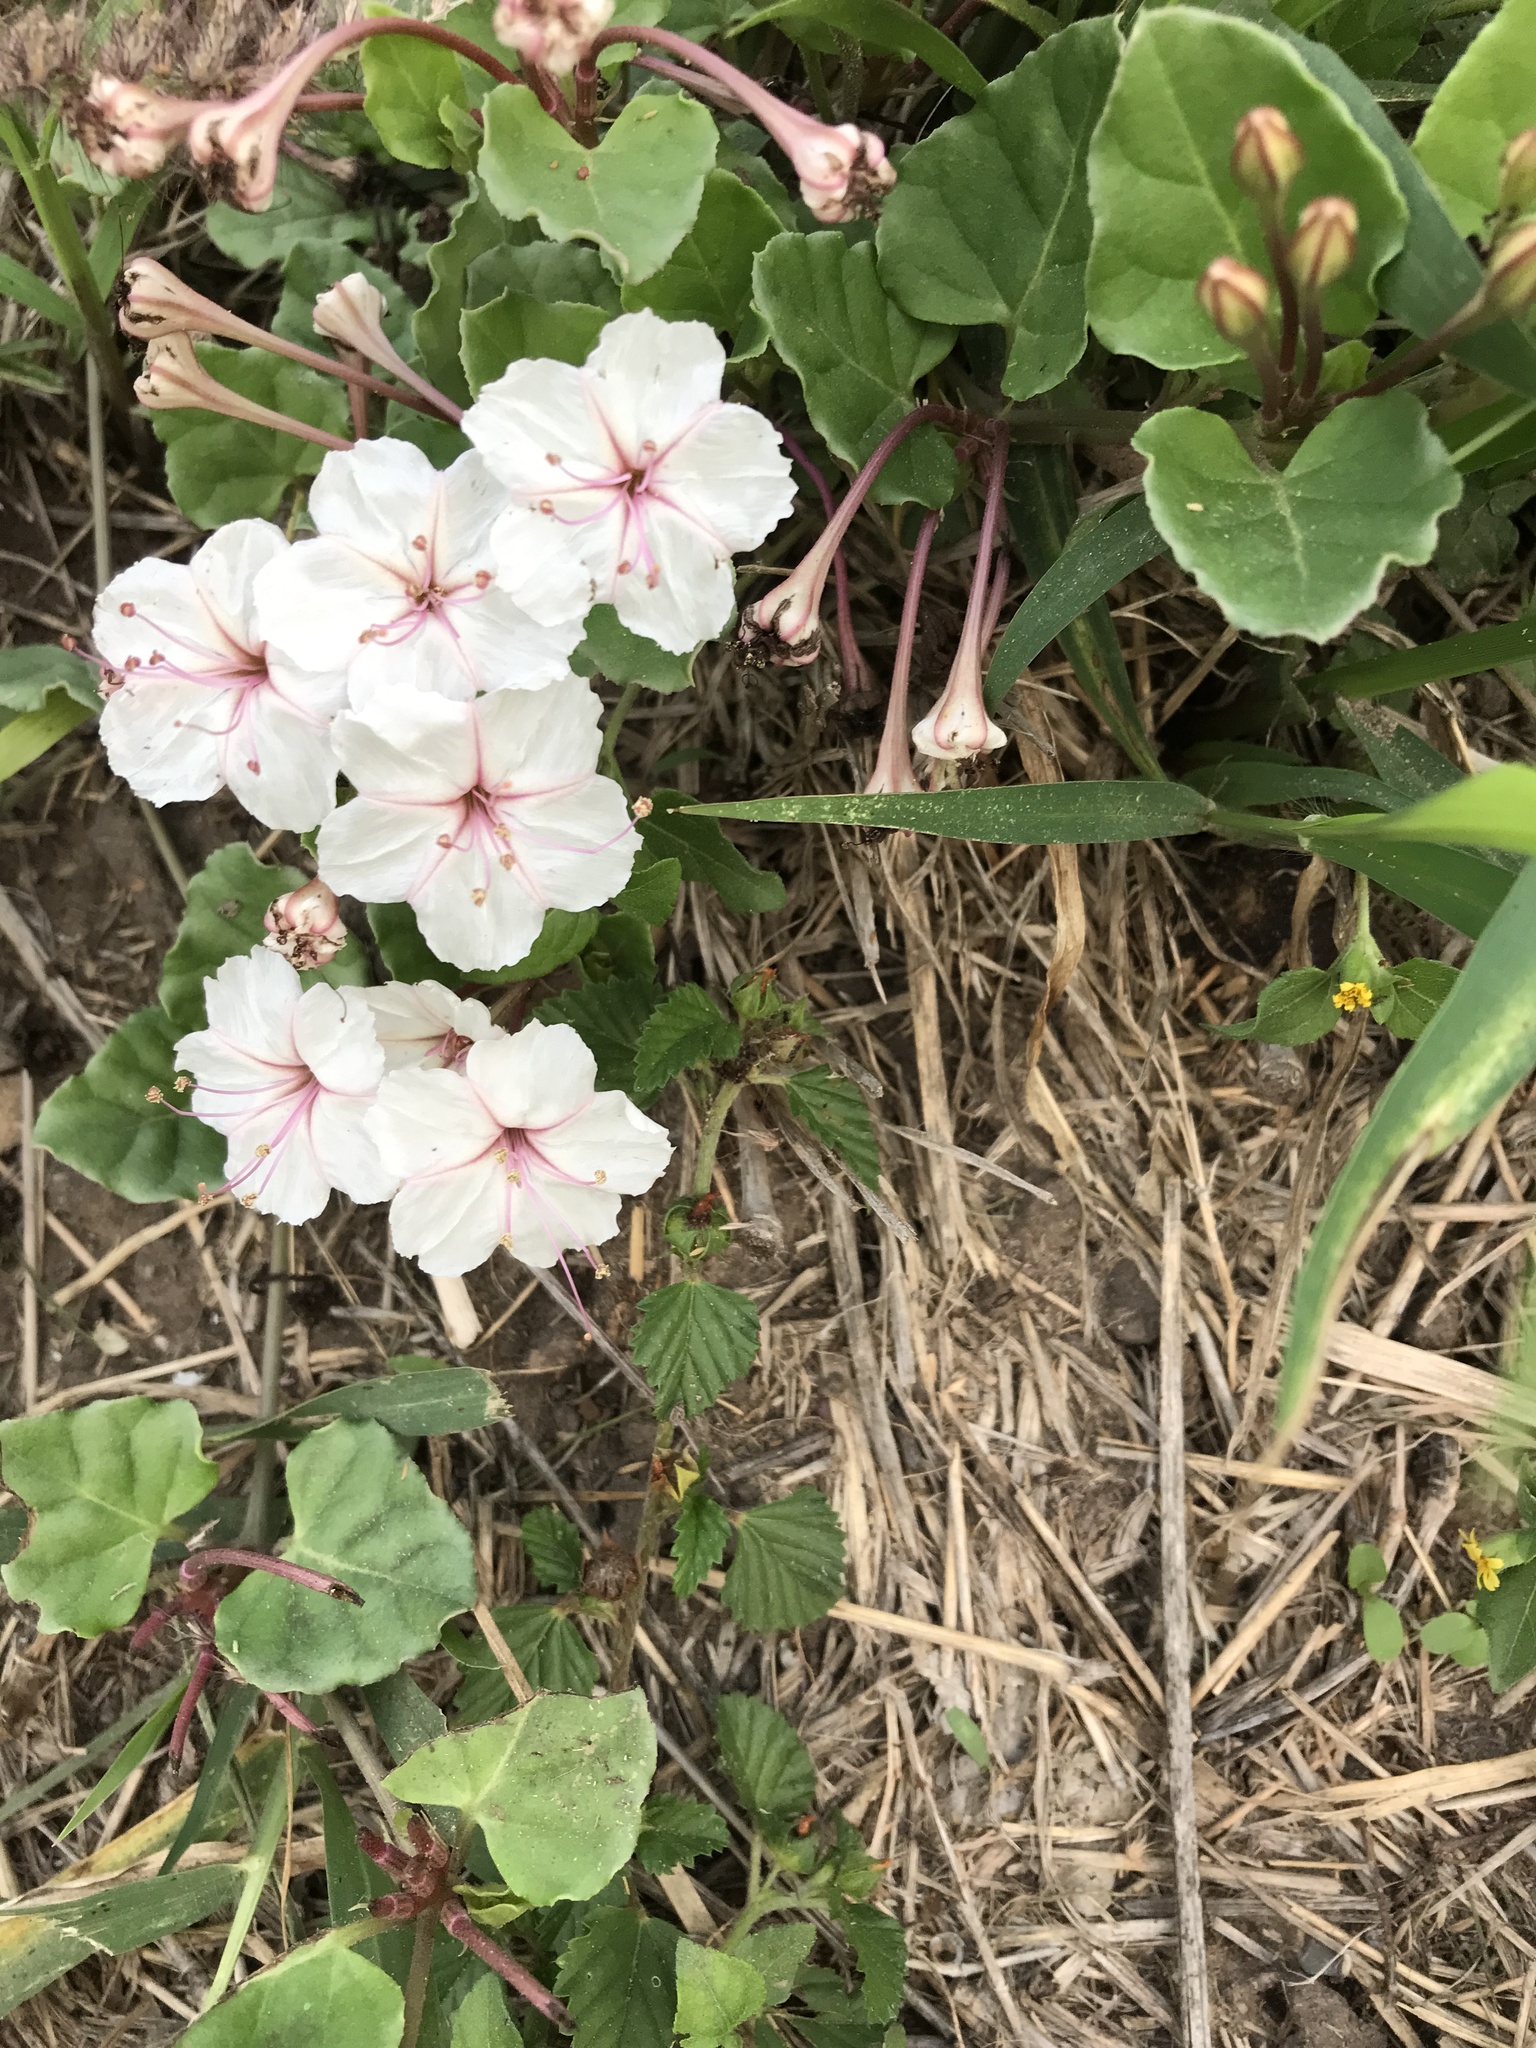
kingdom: Plantae
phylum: Tracheophyta
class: Magnoliopsida
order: Caryophyllales
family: Nyctaginaceae
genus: Acleisanthes
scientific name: Acleisanthes obtusa
